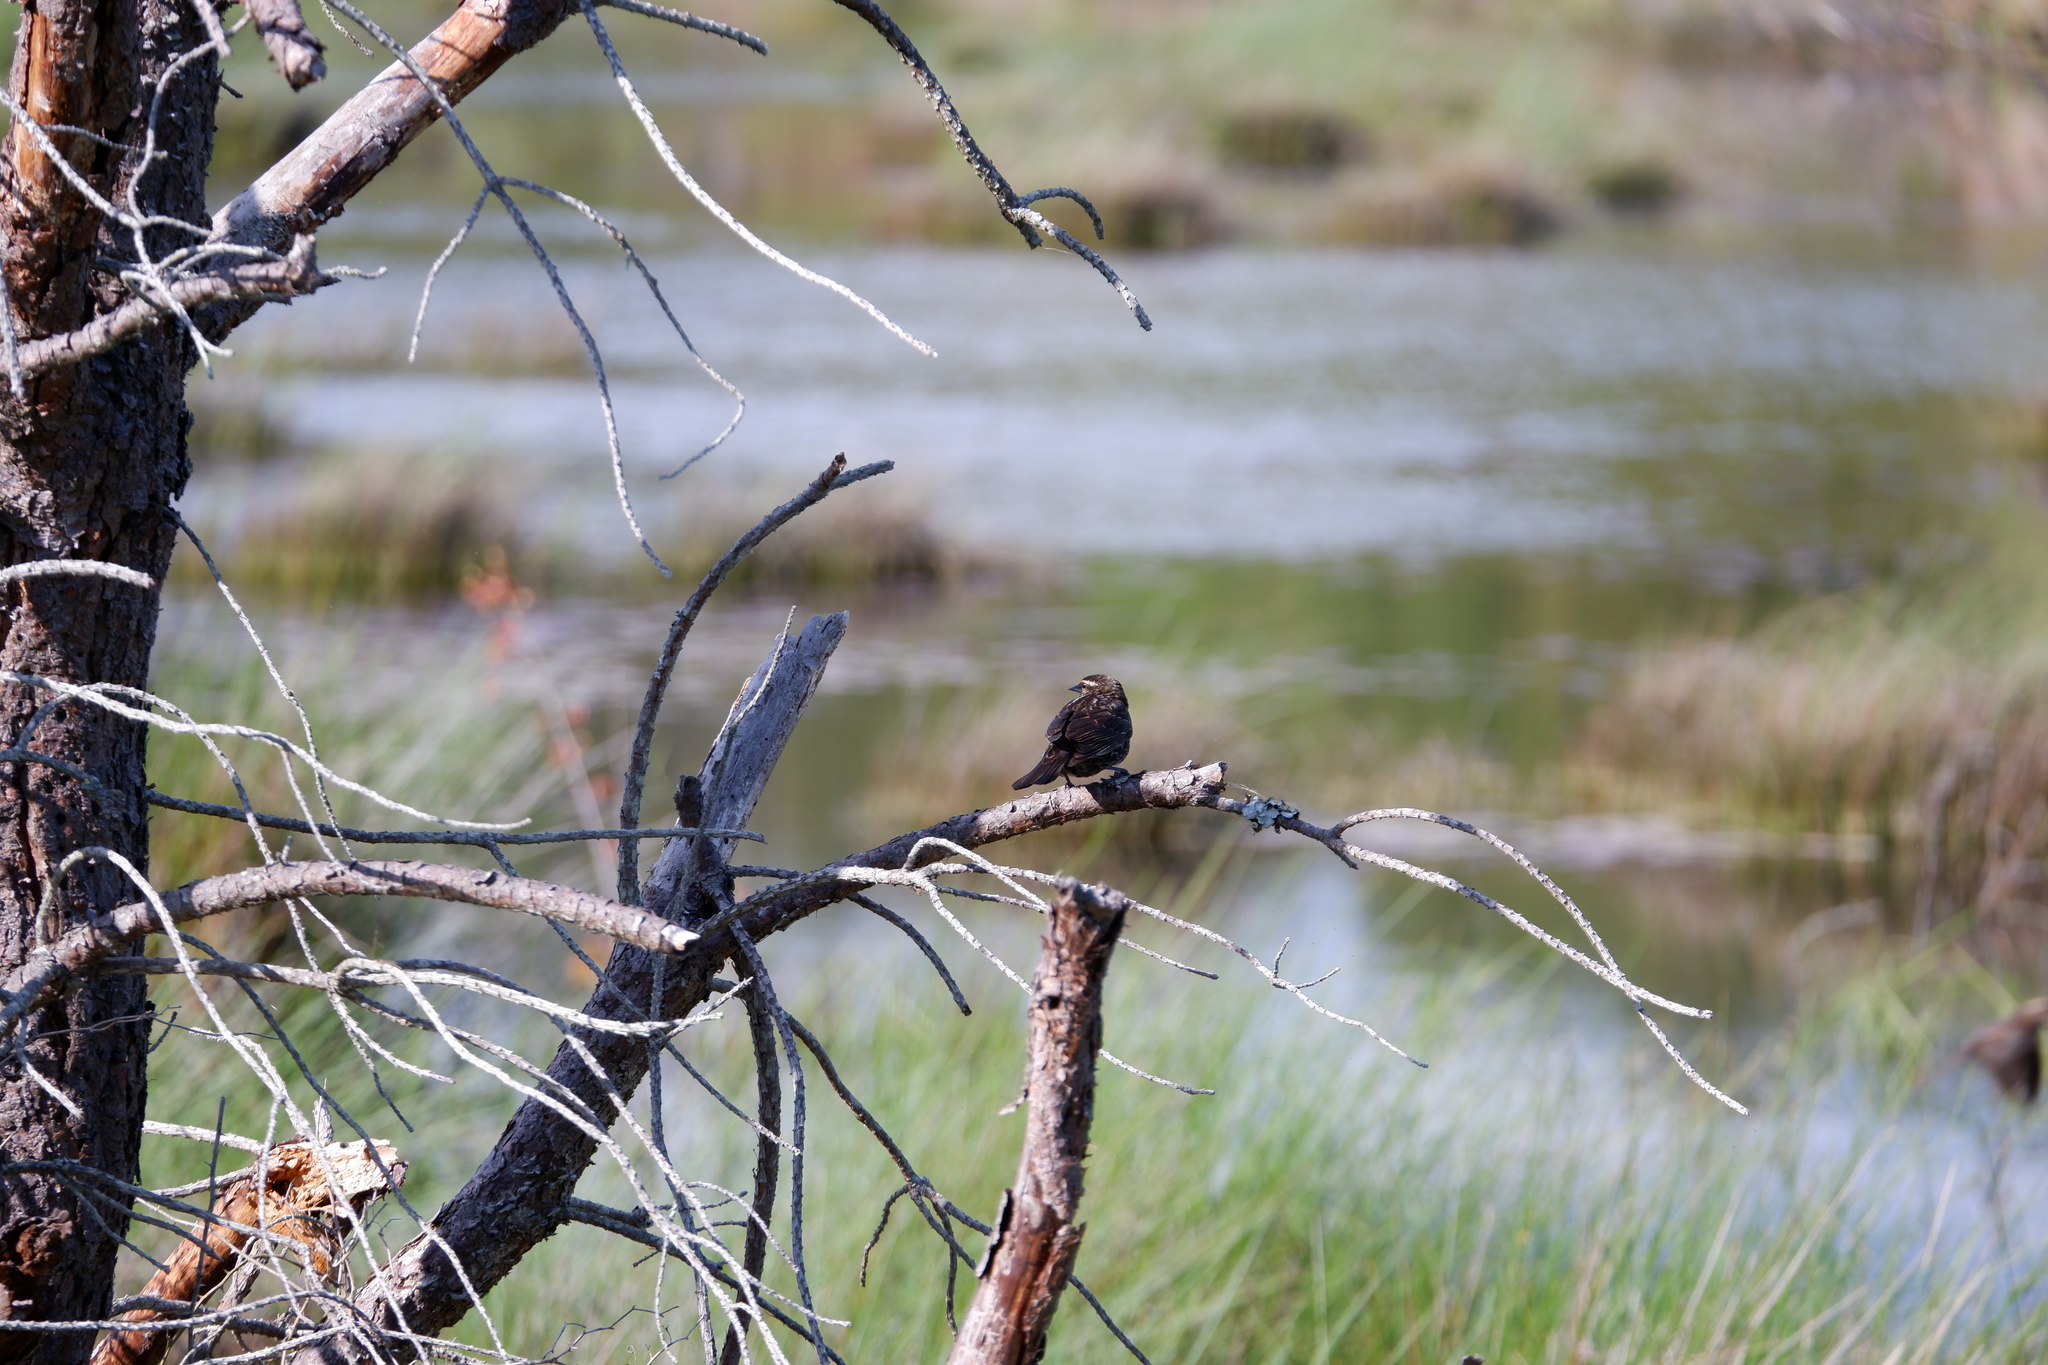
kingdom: Animalia
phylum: Chordata
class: Aves
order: Passeriformes
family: Icteridae
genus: Agelaius
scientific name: Agelaius phoeniceus
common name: Red-winged blackbird
